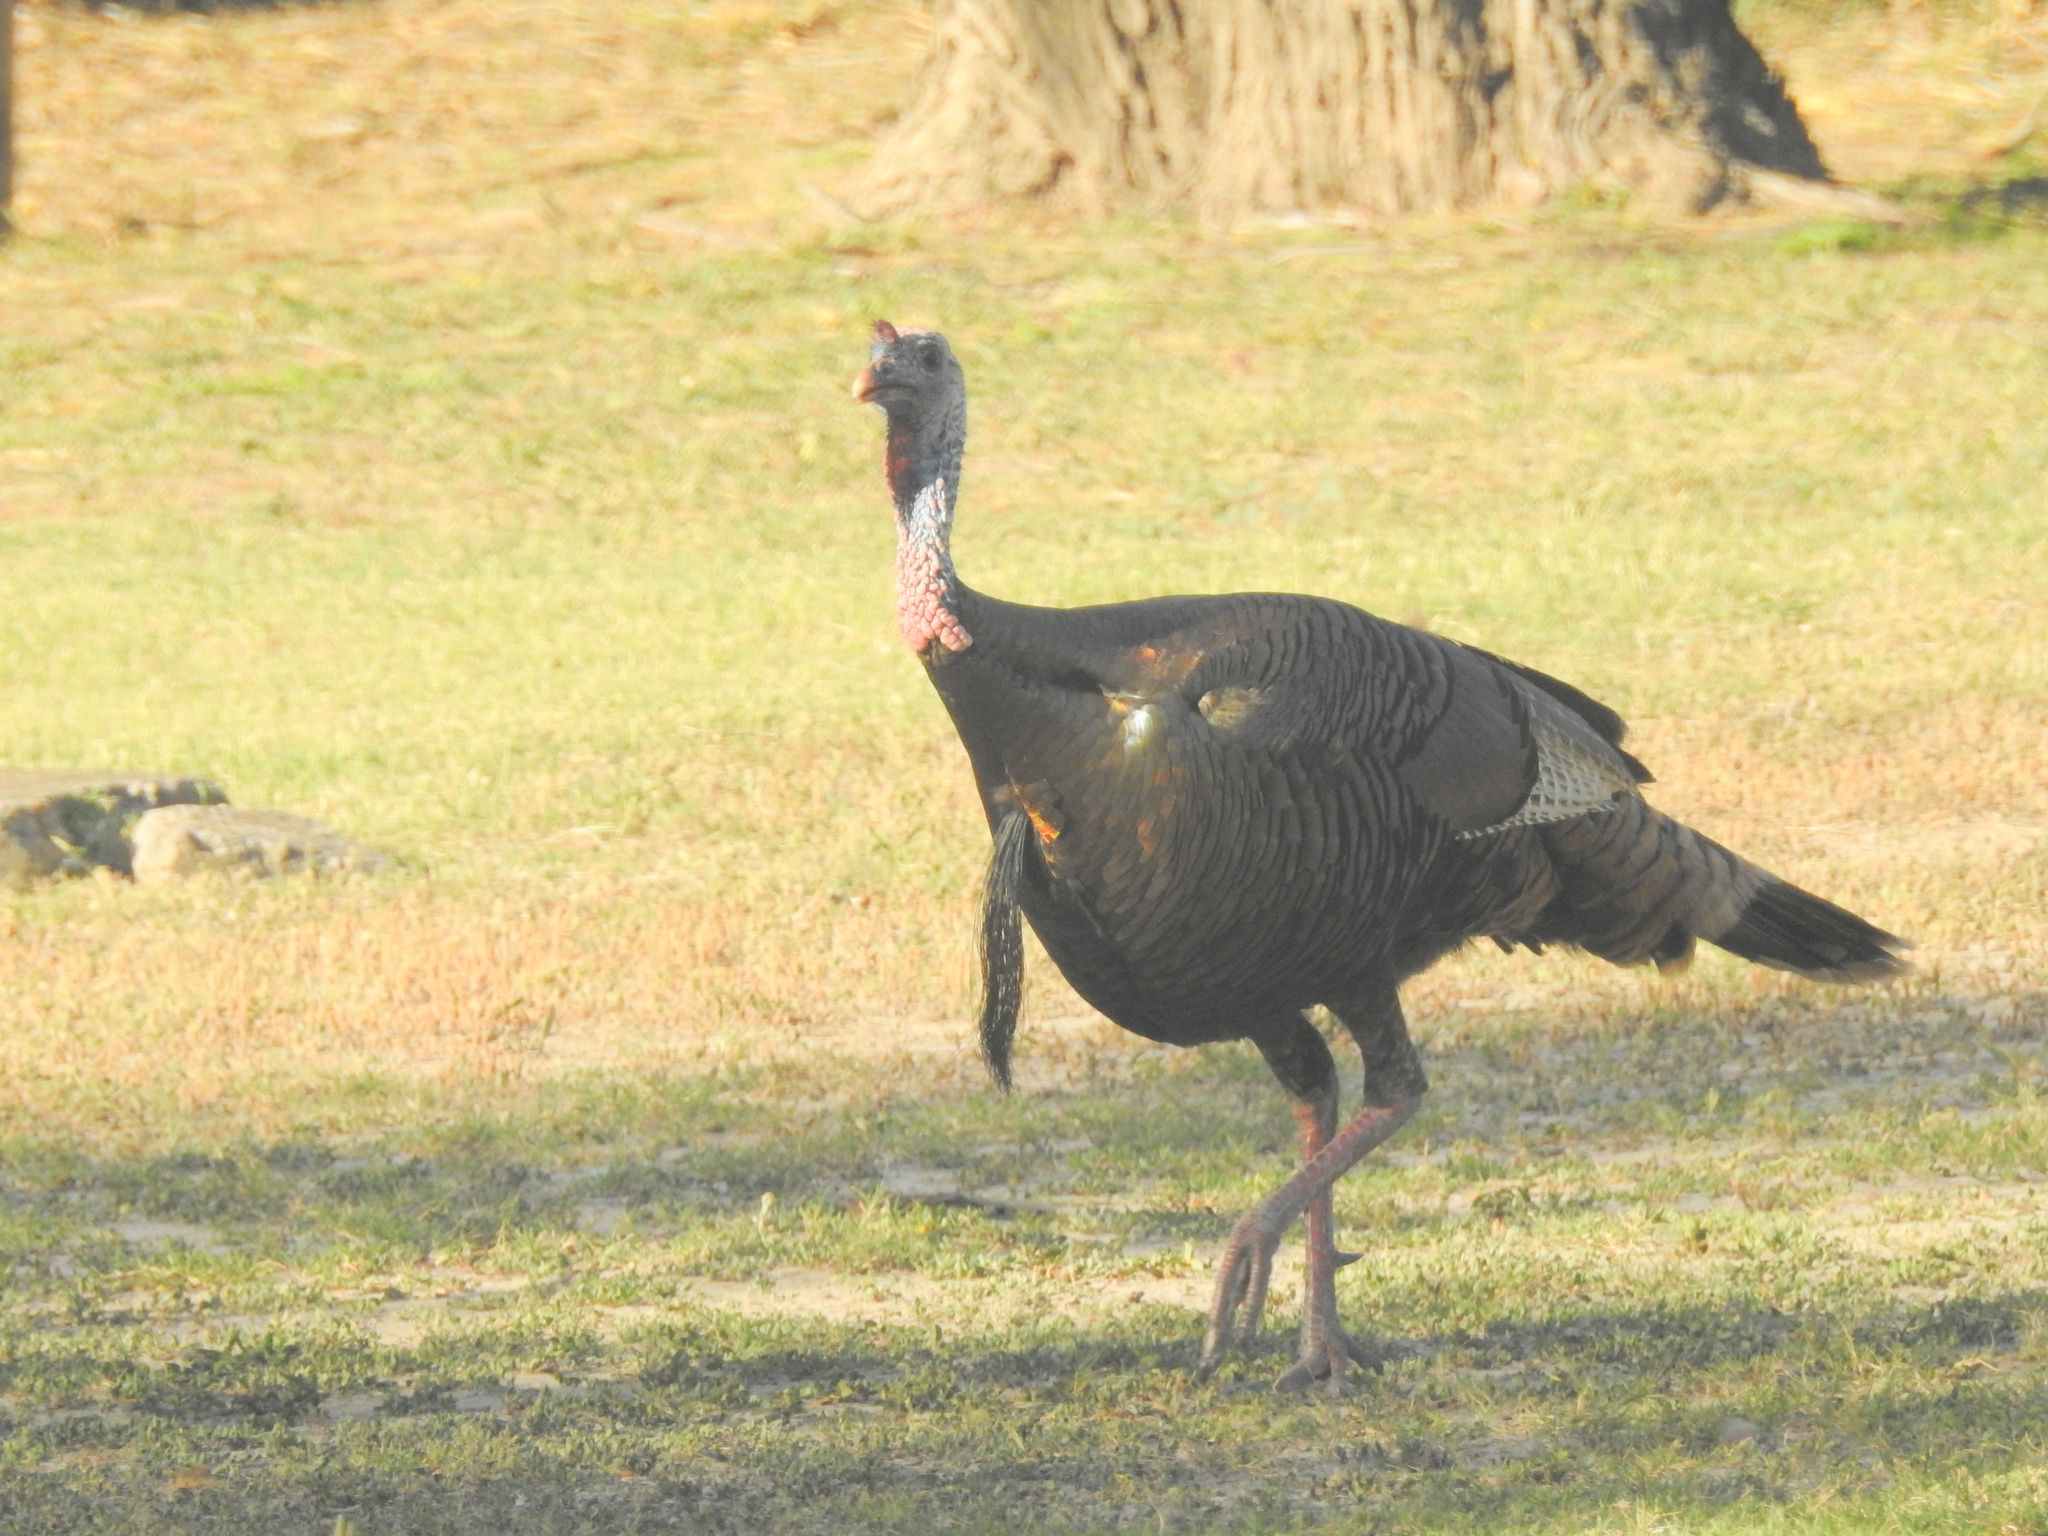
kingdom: Animalia
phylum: Chordata
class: Aves
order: Galliformes
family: Phasianidae
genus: Meleagris
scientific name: Meleagris gallopavo
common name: Wild turkey
